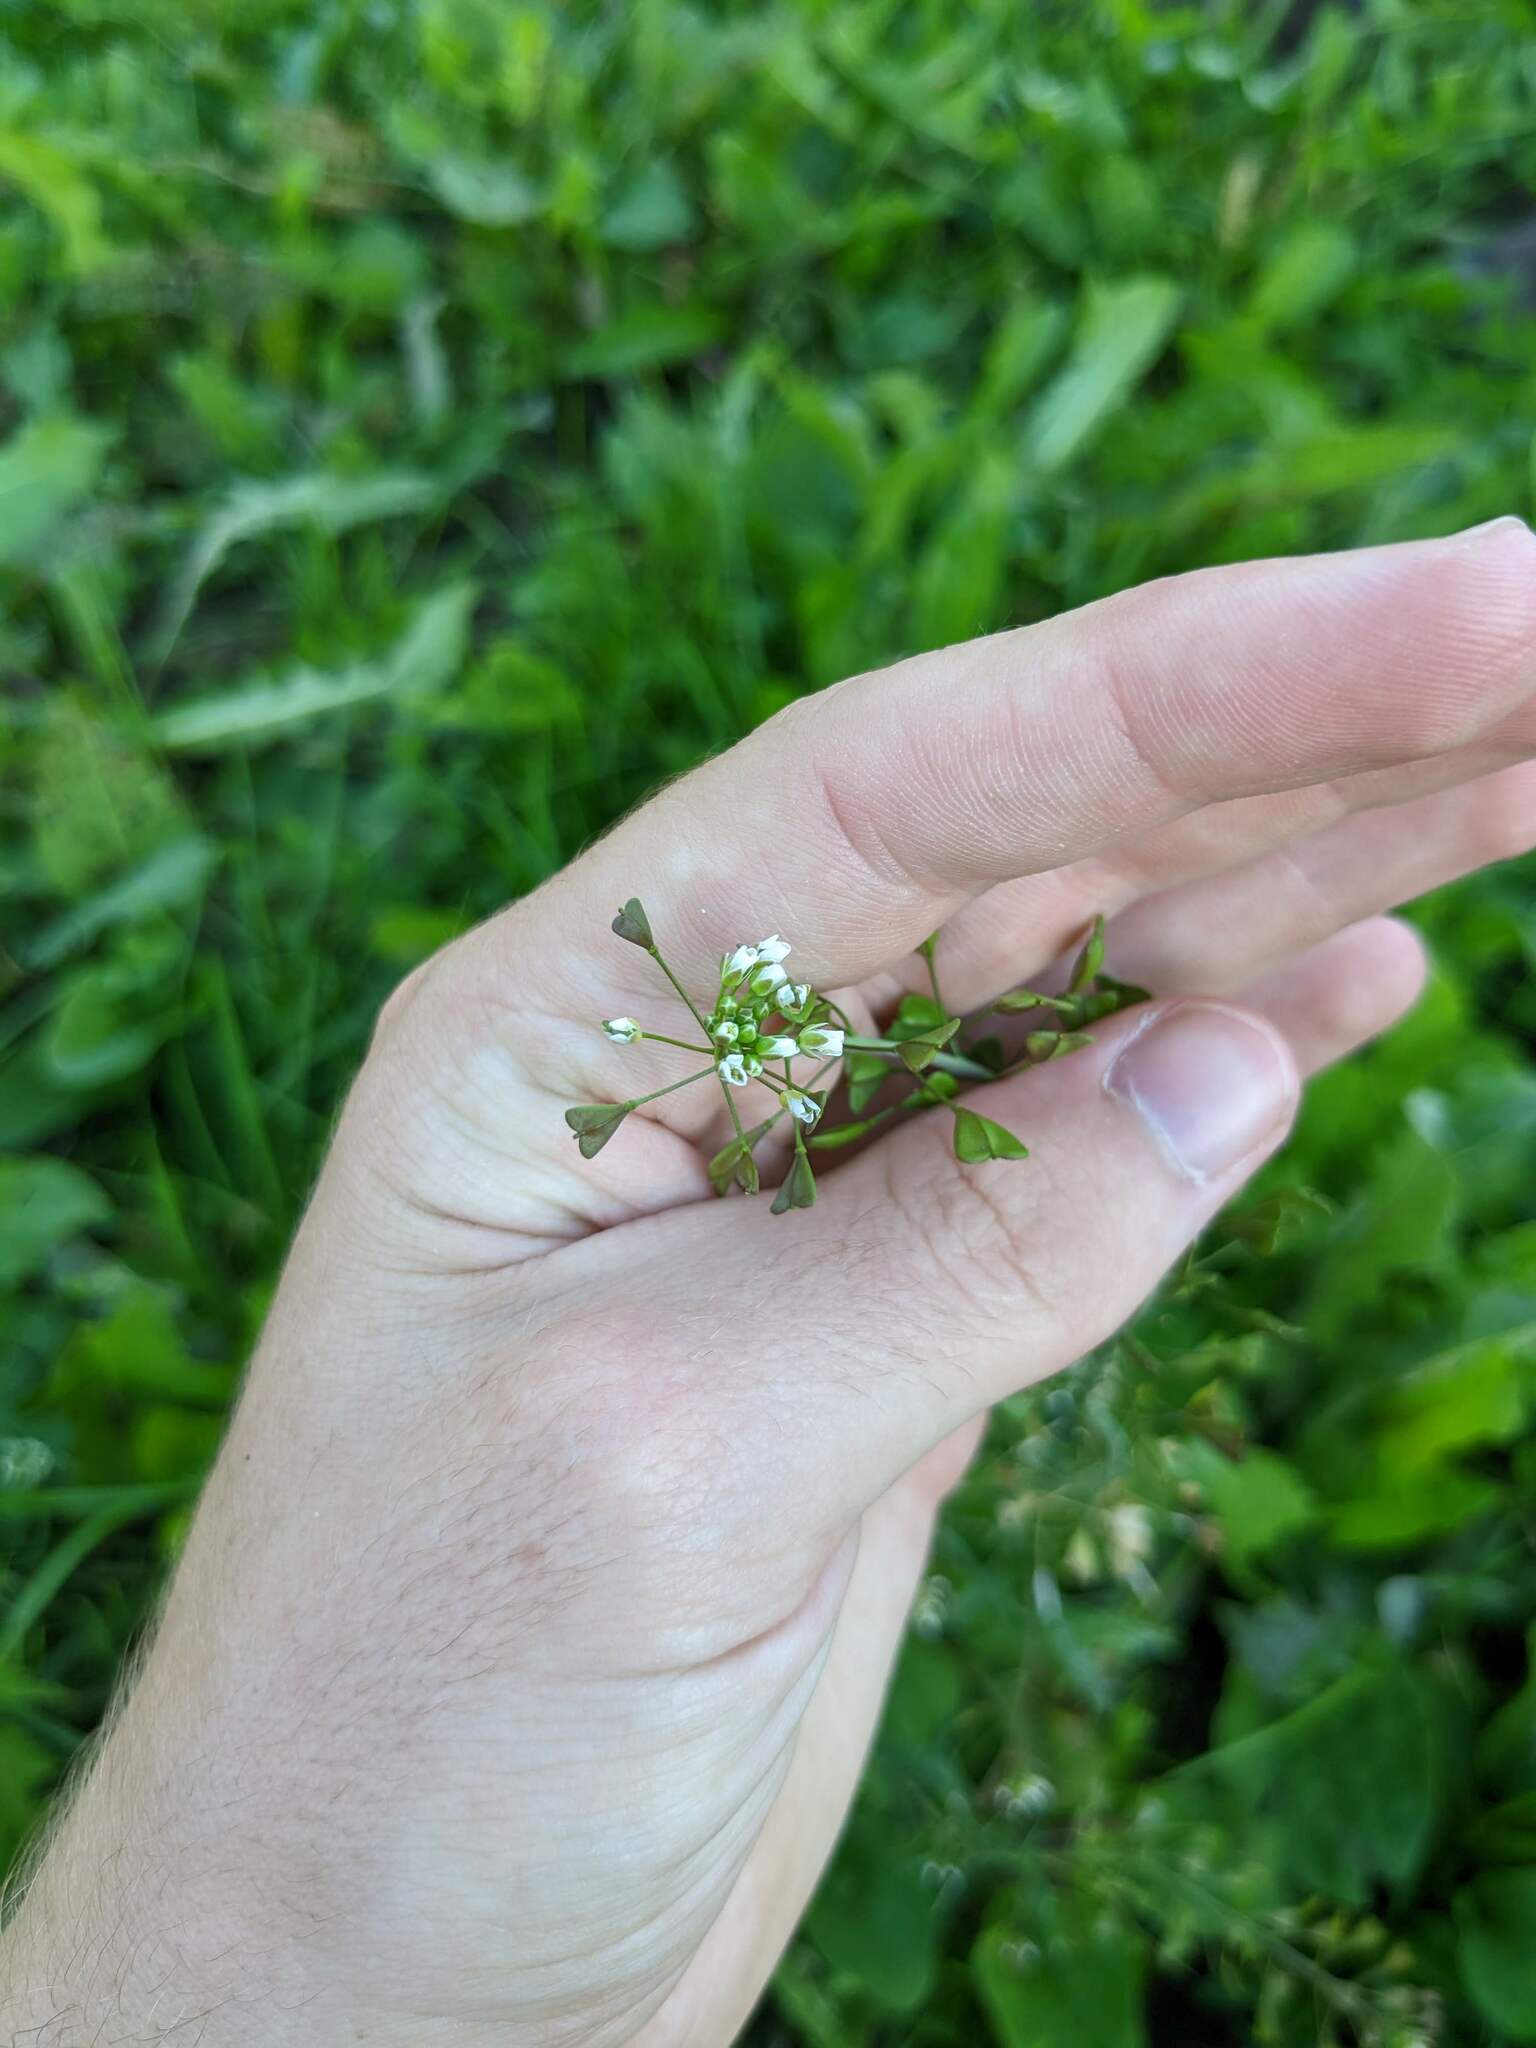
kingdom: Plantae
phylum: Tracheophyta
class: Magnoliopsida
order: Brassicales
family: Brassicaceae
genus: Capsella
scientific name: Capsella bursa-pastoris
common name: Shepherd's purse
